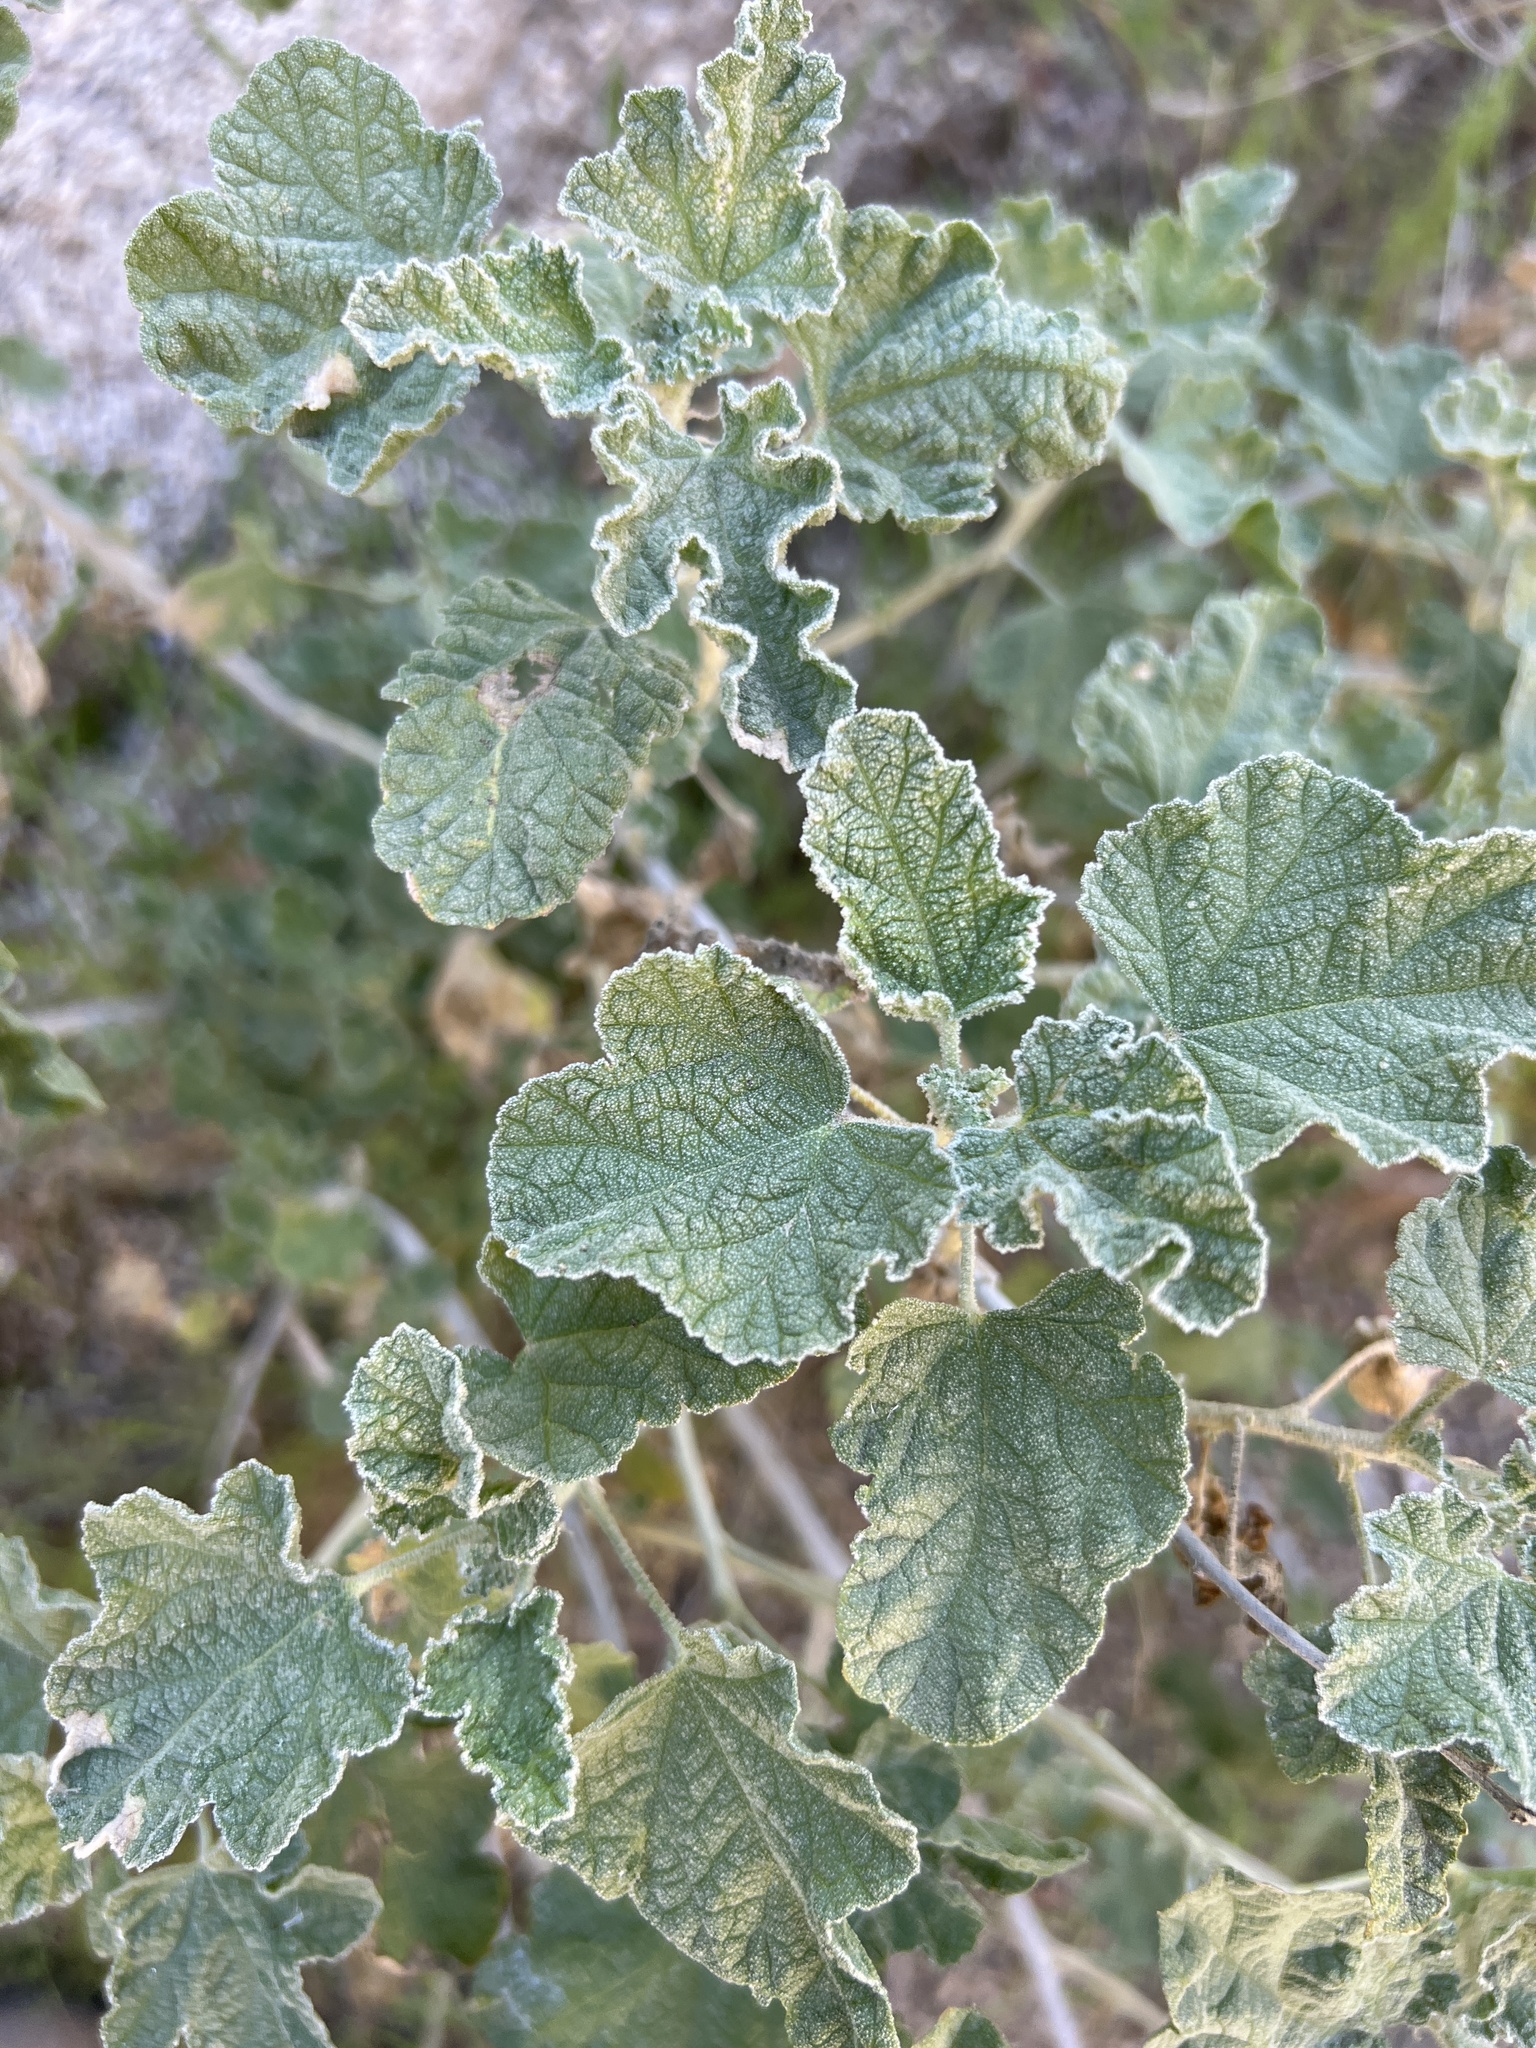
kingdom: Plantae
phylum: Tracheophyta
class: Magnoliopsida
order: Malvales
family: Malvaceae
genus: Sphaeralcea
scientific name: Sphaeralcea ambigua
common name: Apricot globe-mallow
